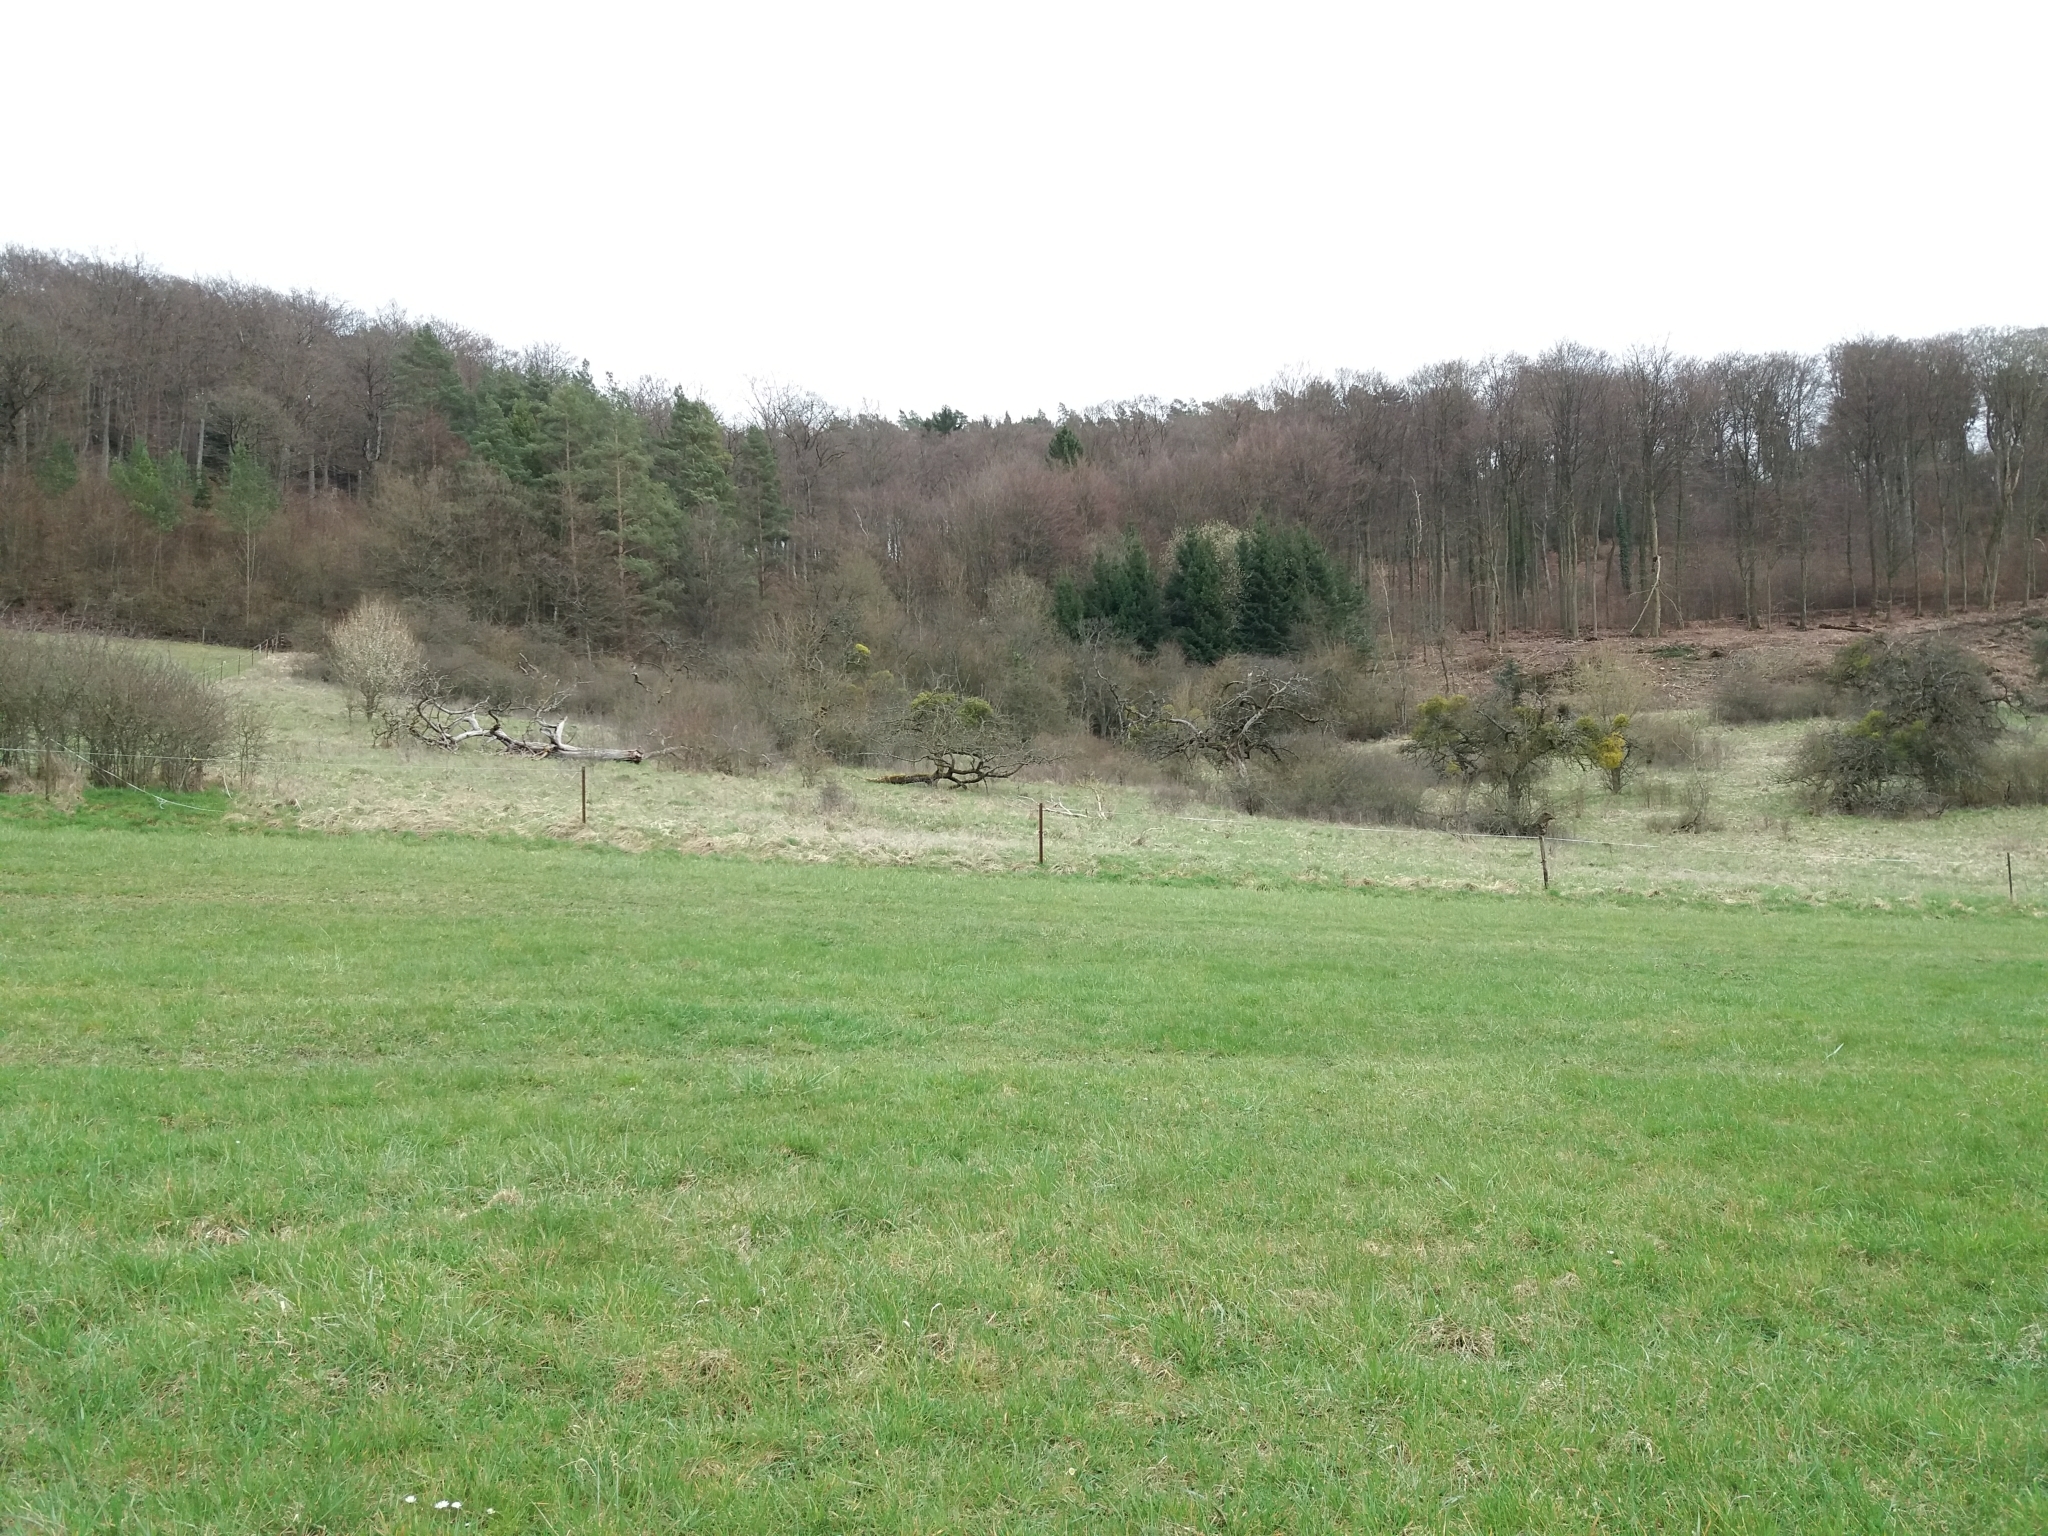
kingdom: Plantae
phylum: Tracheophyta
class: Magnoliopsida
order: Santalales
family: Viscaceae
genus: Viscum
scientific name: Viscum album
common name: Mistletoe
